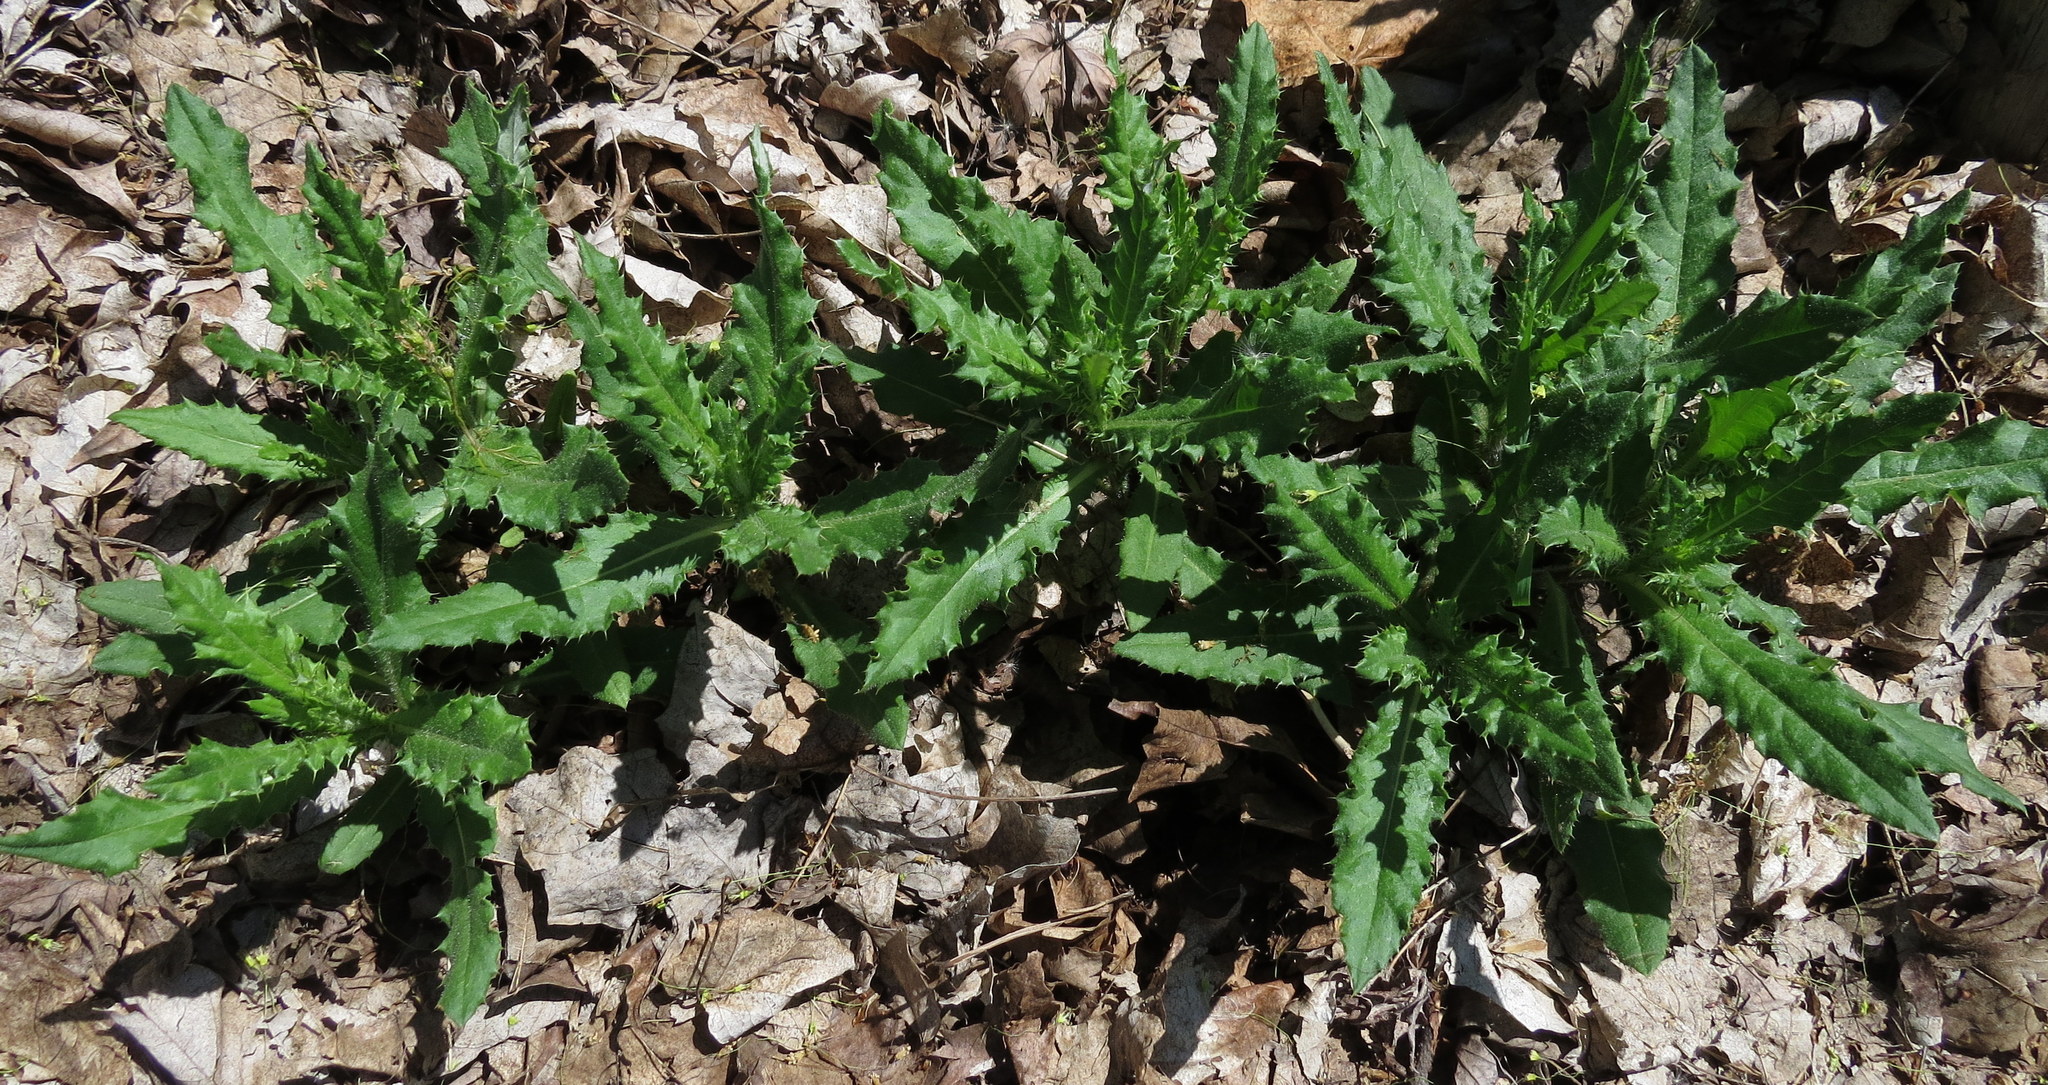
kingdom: Plantae
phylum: Tracheophyta
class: Magnoliopsida
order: Asterales
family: Asteraceae
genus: Cirsium
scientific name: Cirsium arvense
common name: Creeping thistle
